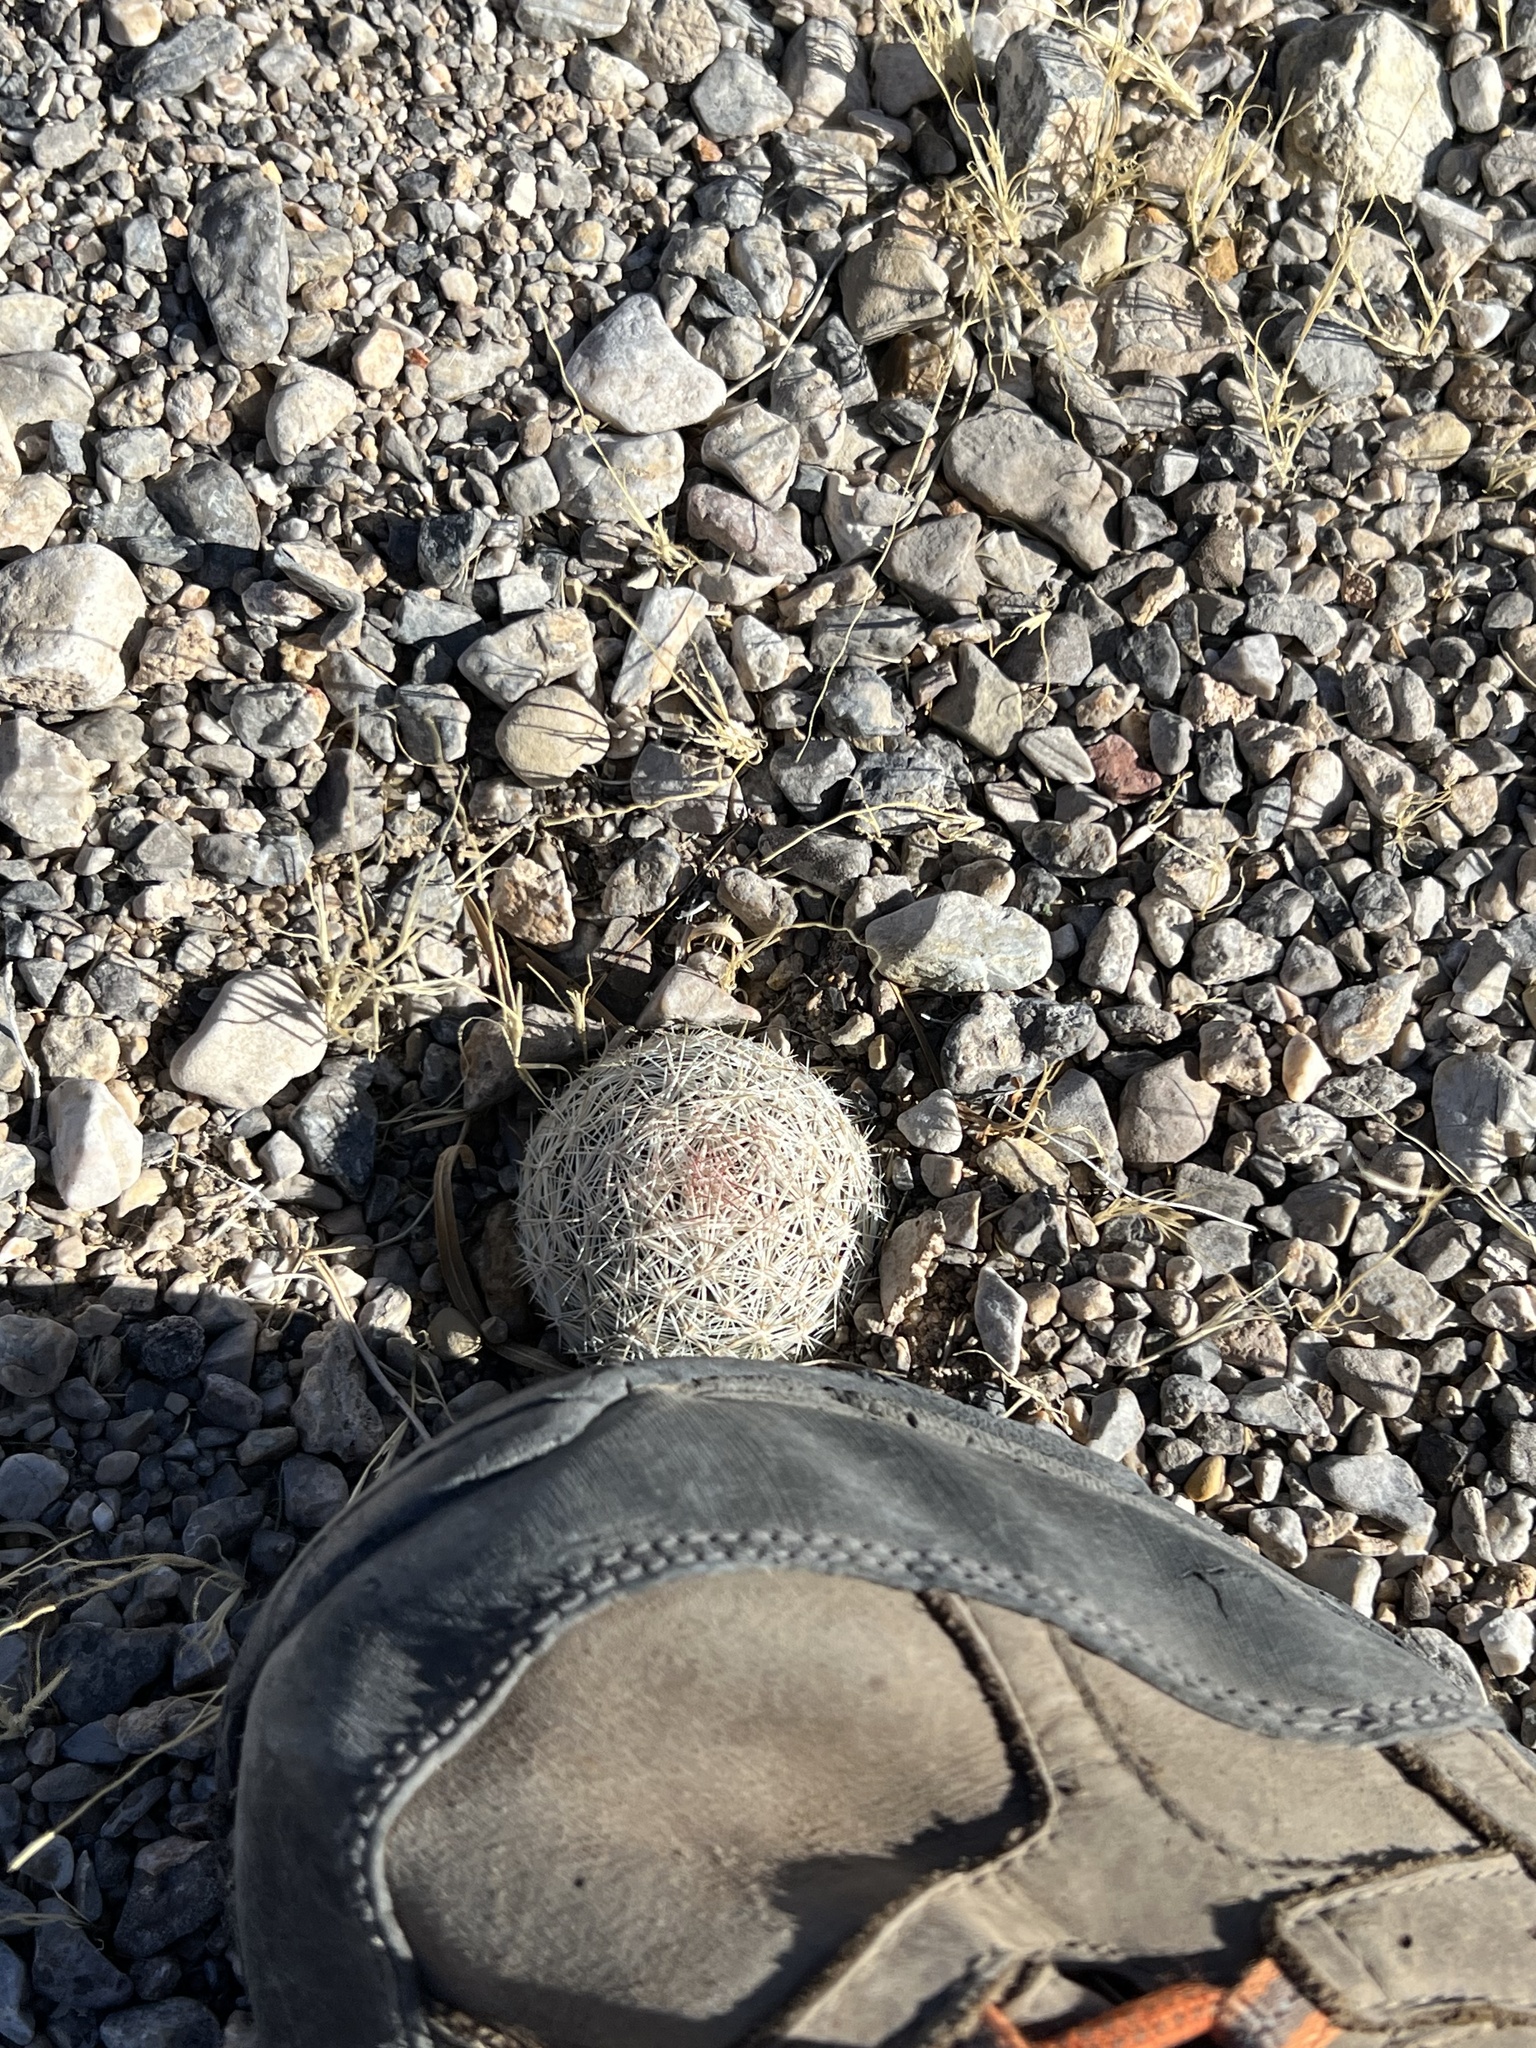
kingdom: Plantae
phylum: Tracheophyta
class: Magnoliopsida
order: Caryophyllales
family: Cactaceae
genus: Pelecyphora
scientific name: Pelecyphora dasyacantha
